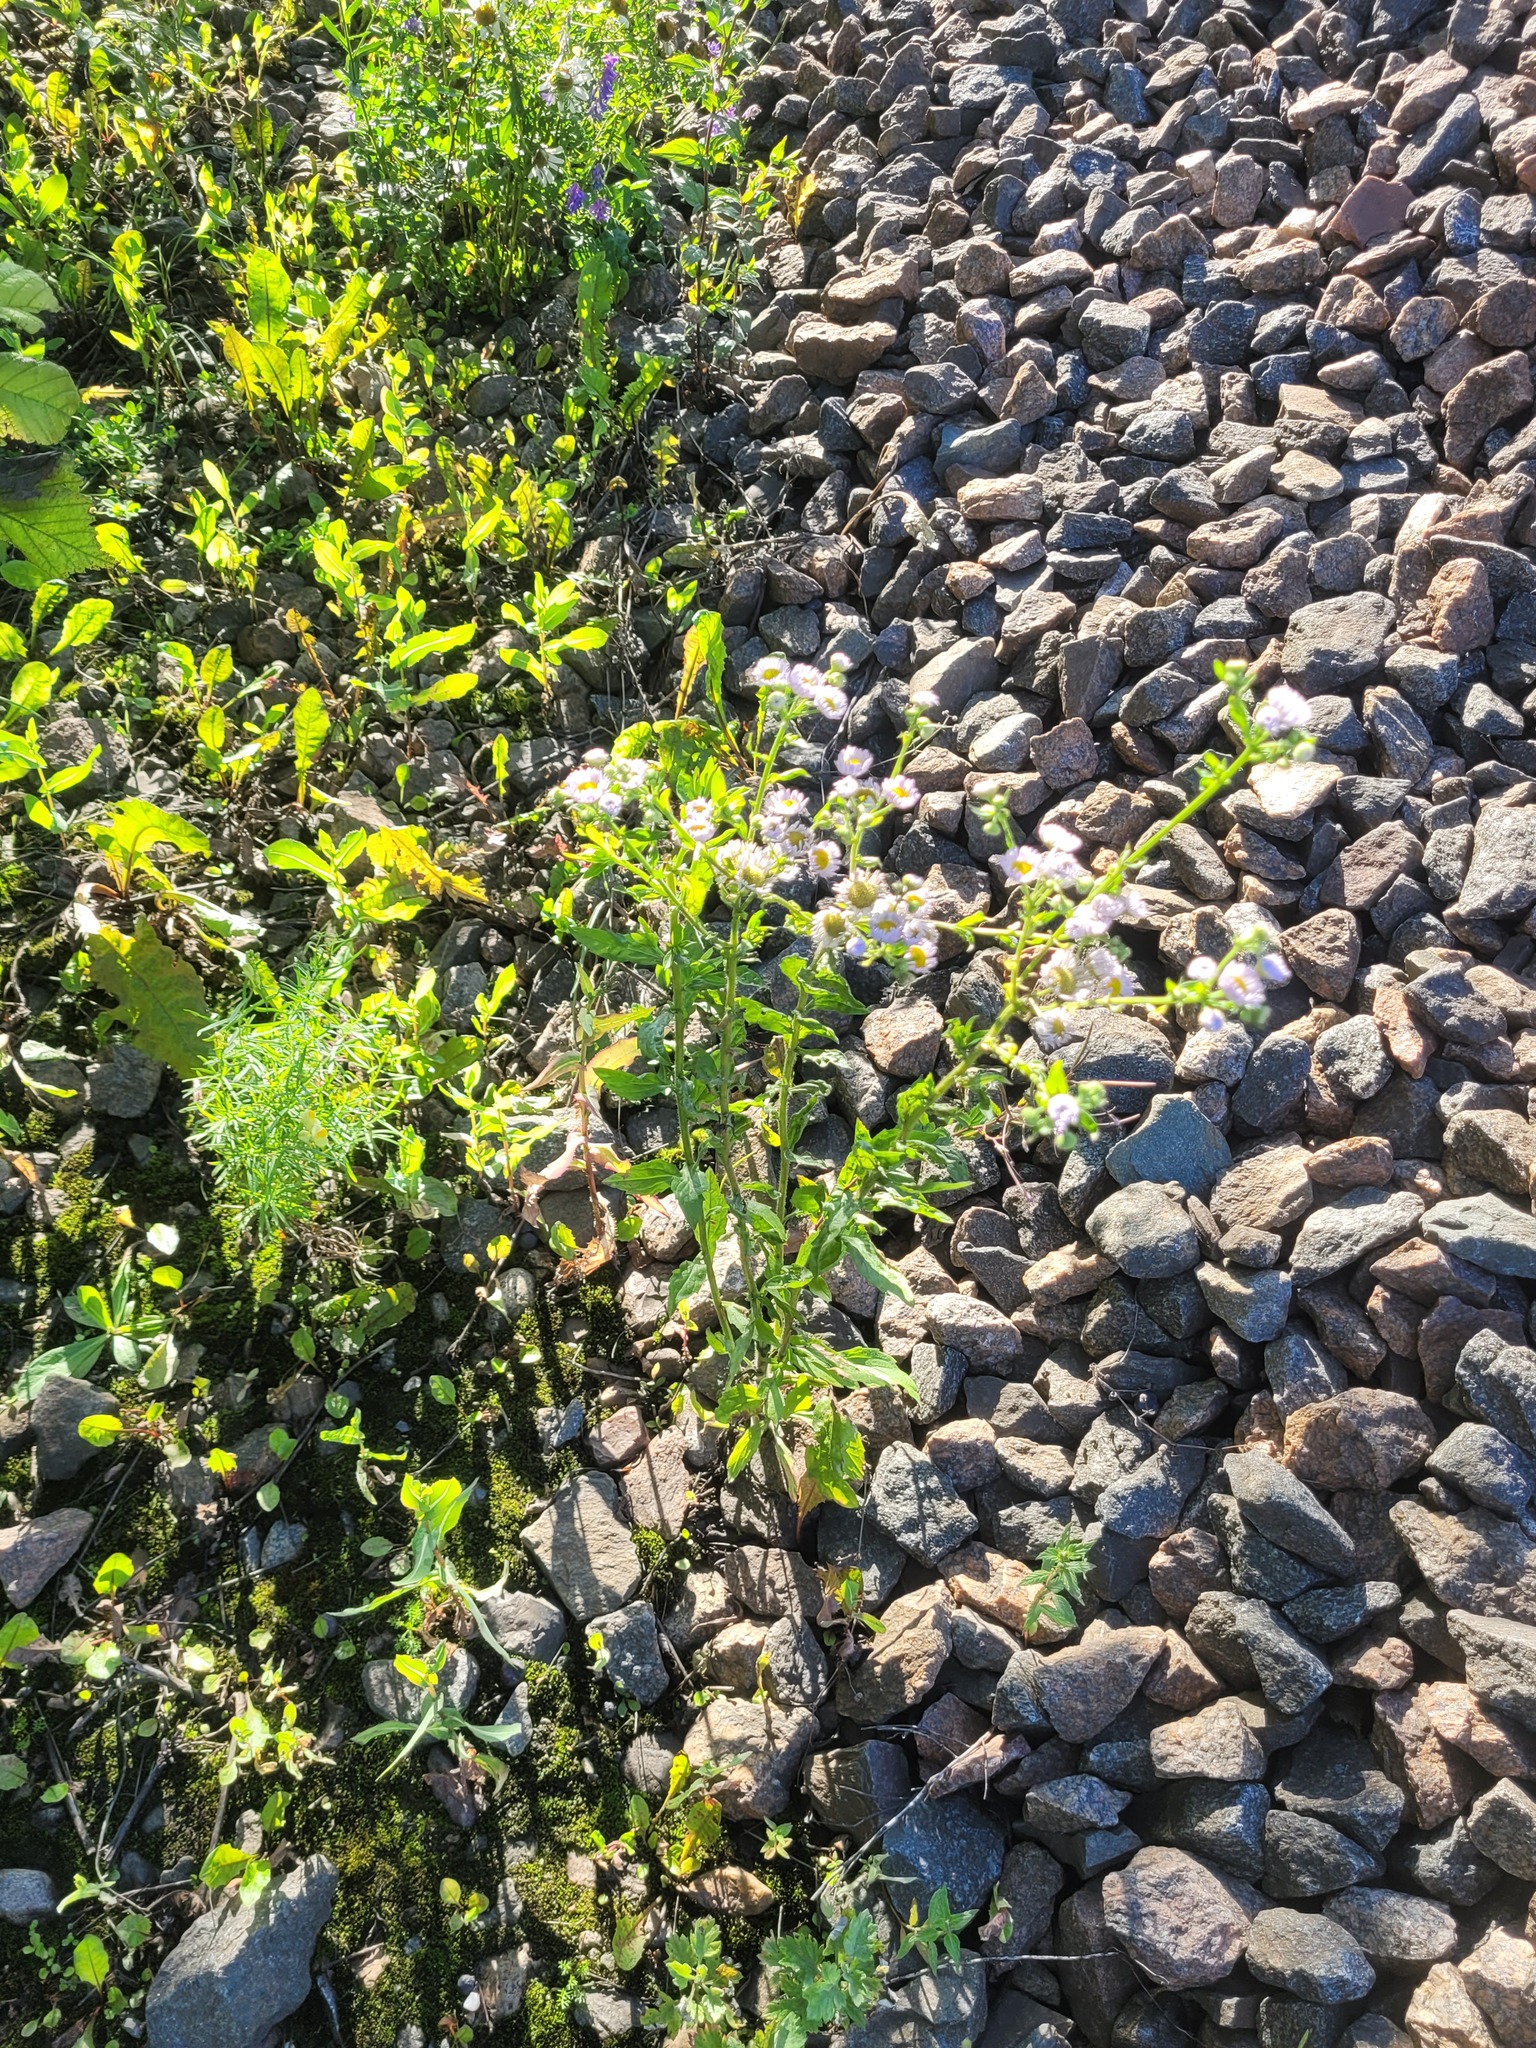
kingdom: Plantae
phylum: Tracheophyta
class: Magnoliopsida
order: Asterales
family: Asteraceae
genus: Erigeron
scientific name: Erigeron annuus
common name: Tall fleabane
